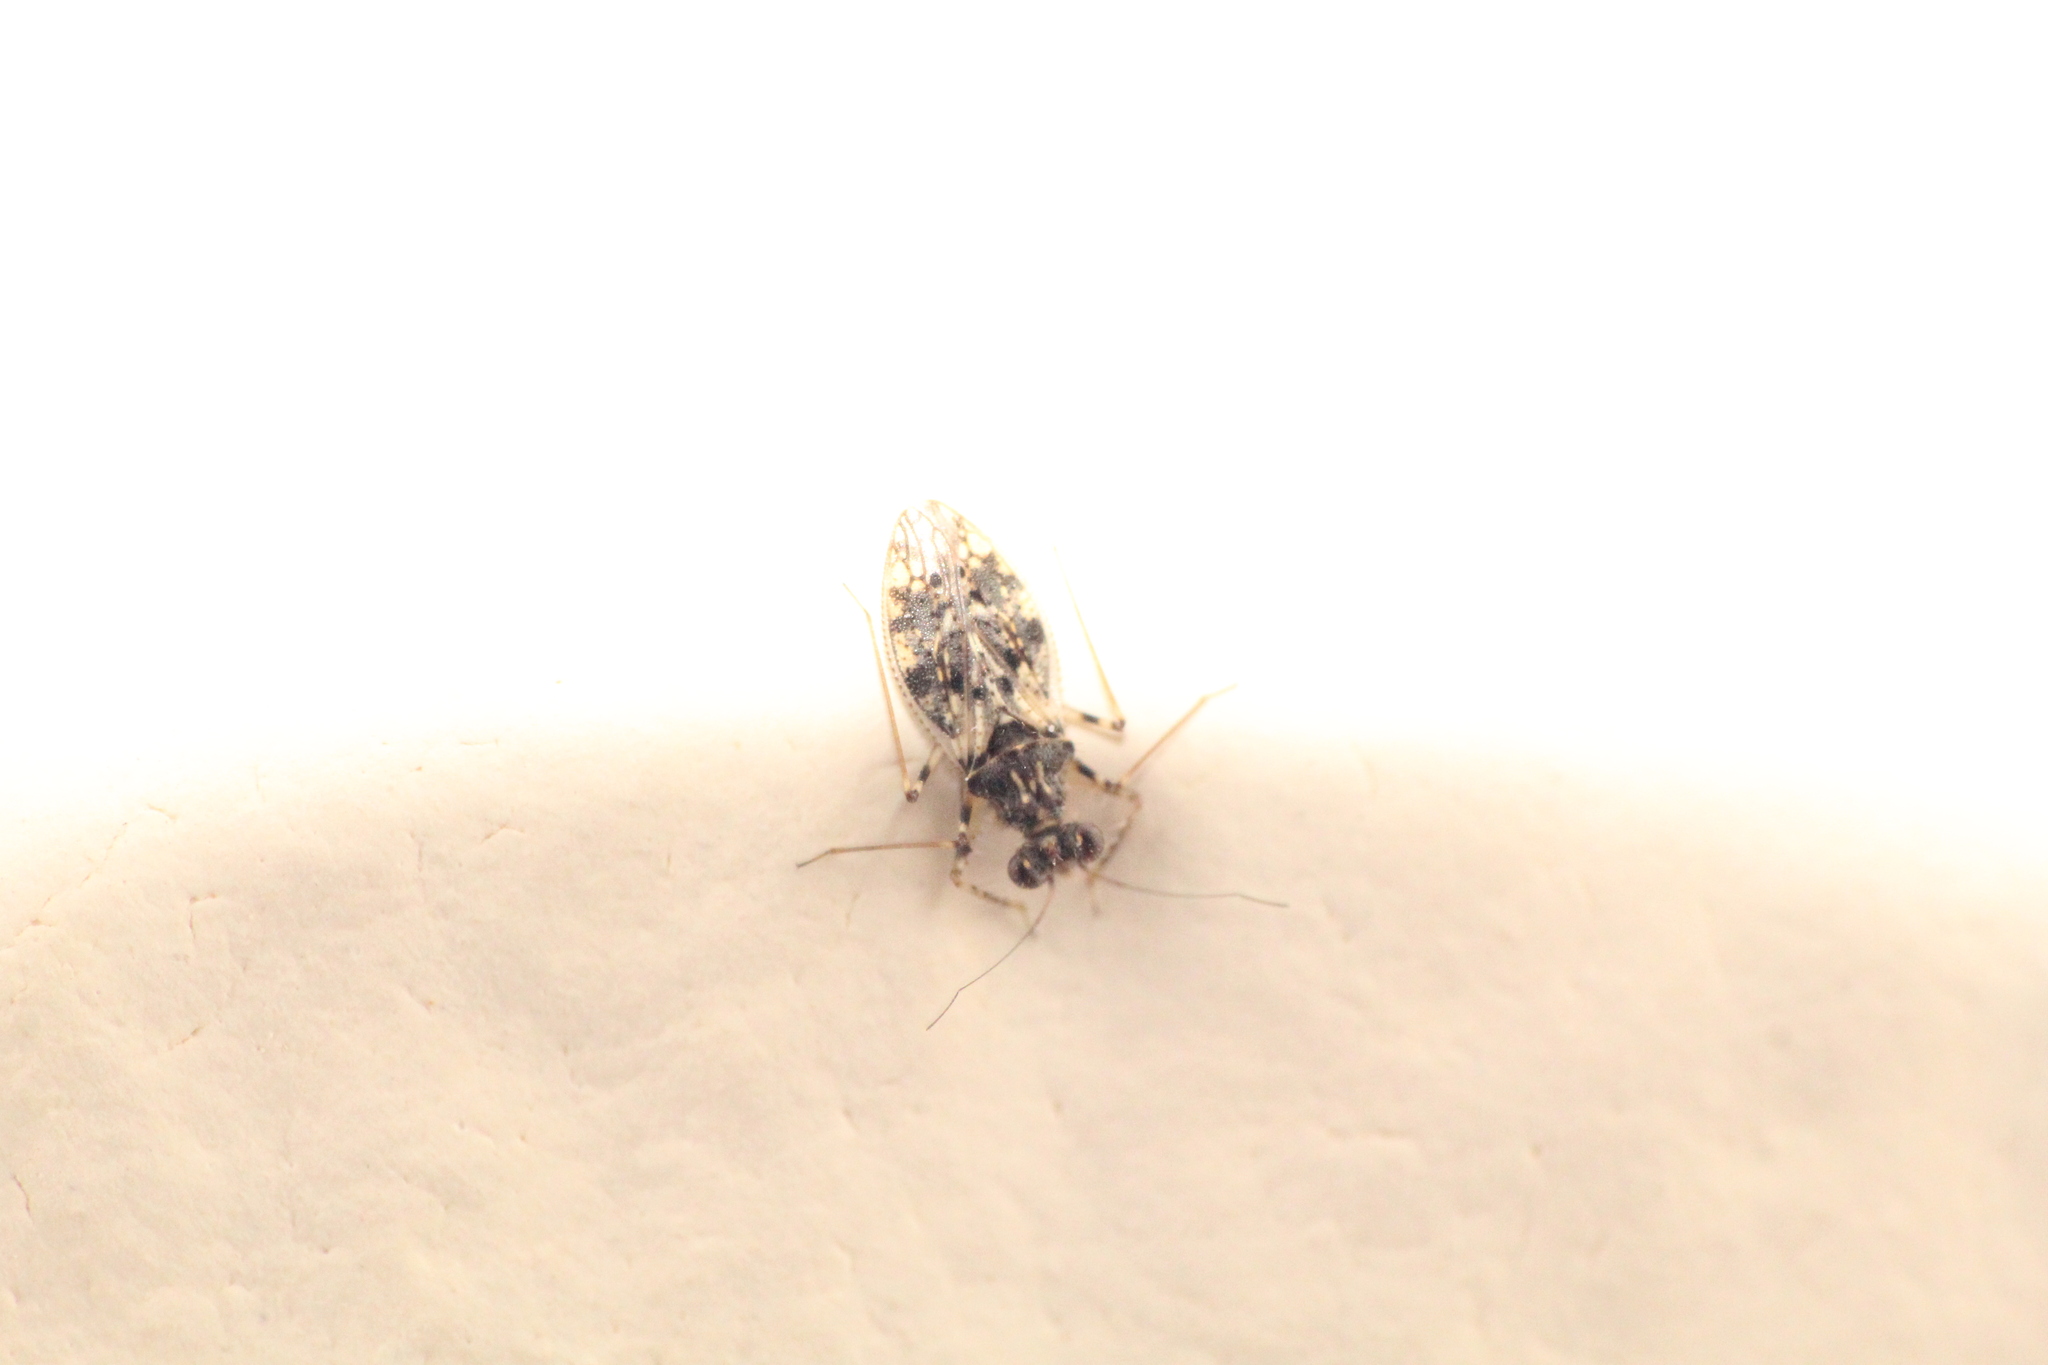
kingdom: Animalia
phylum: Arthropoda
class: Insecta
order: Hemiptera
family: Leptopodidae
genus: Leptopus
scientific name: Leptopus marmoratus
